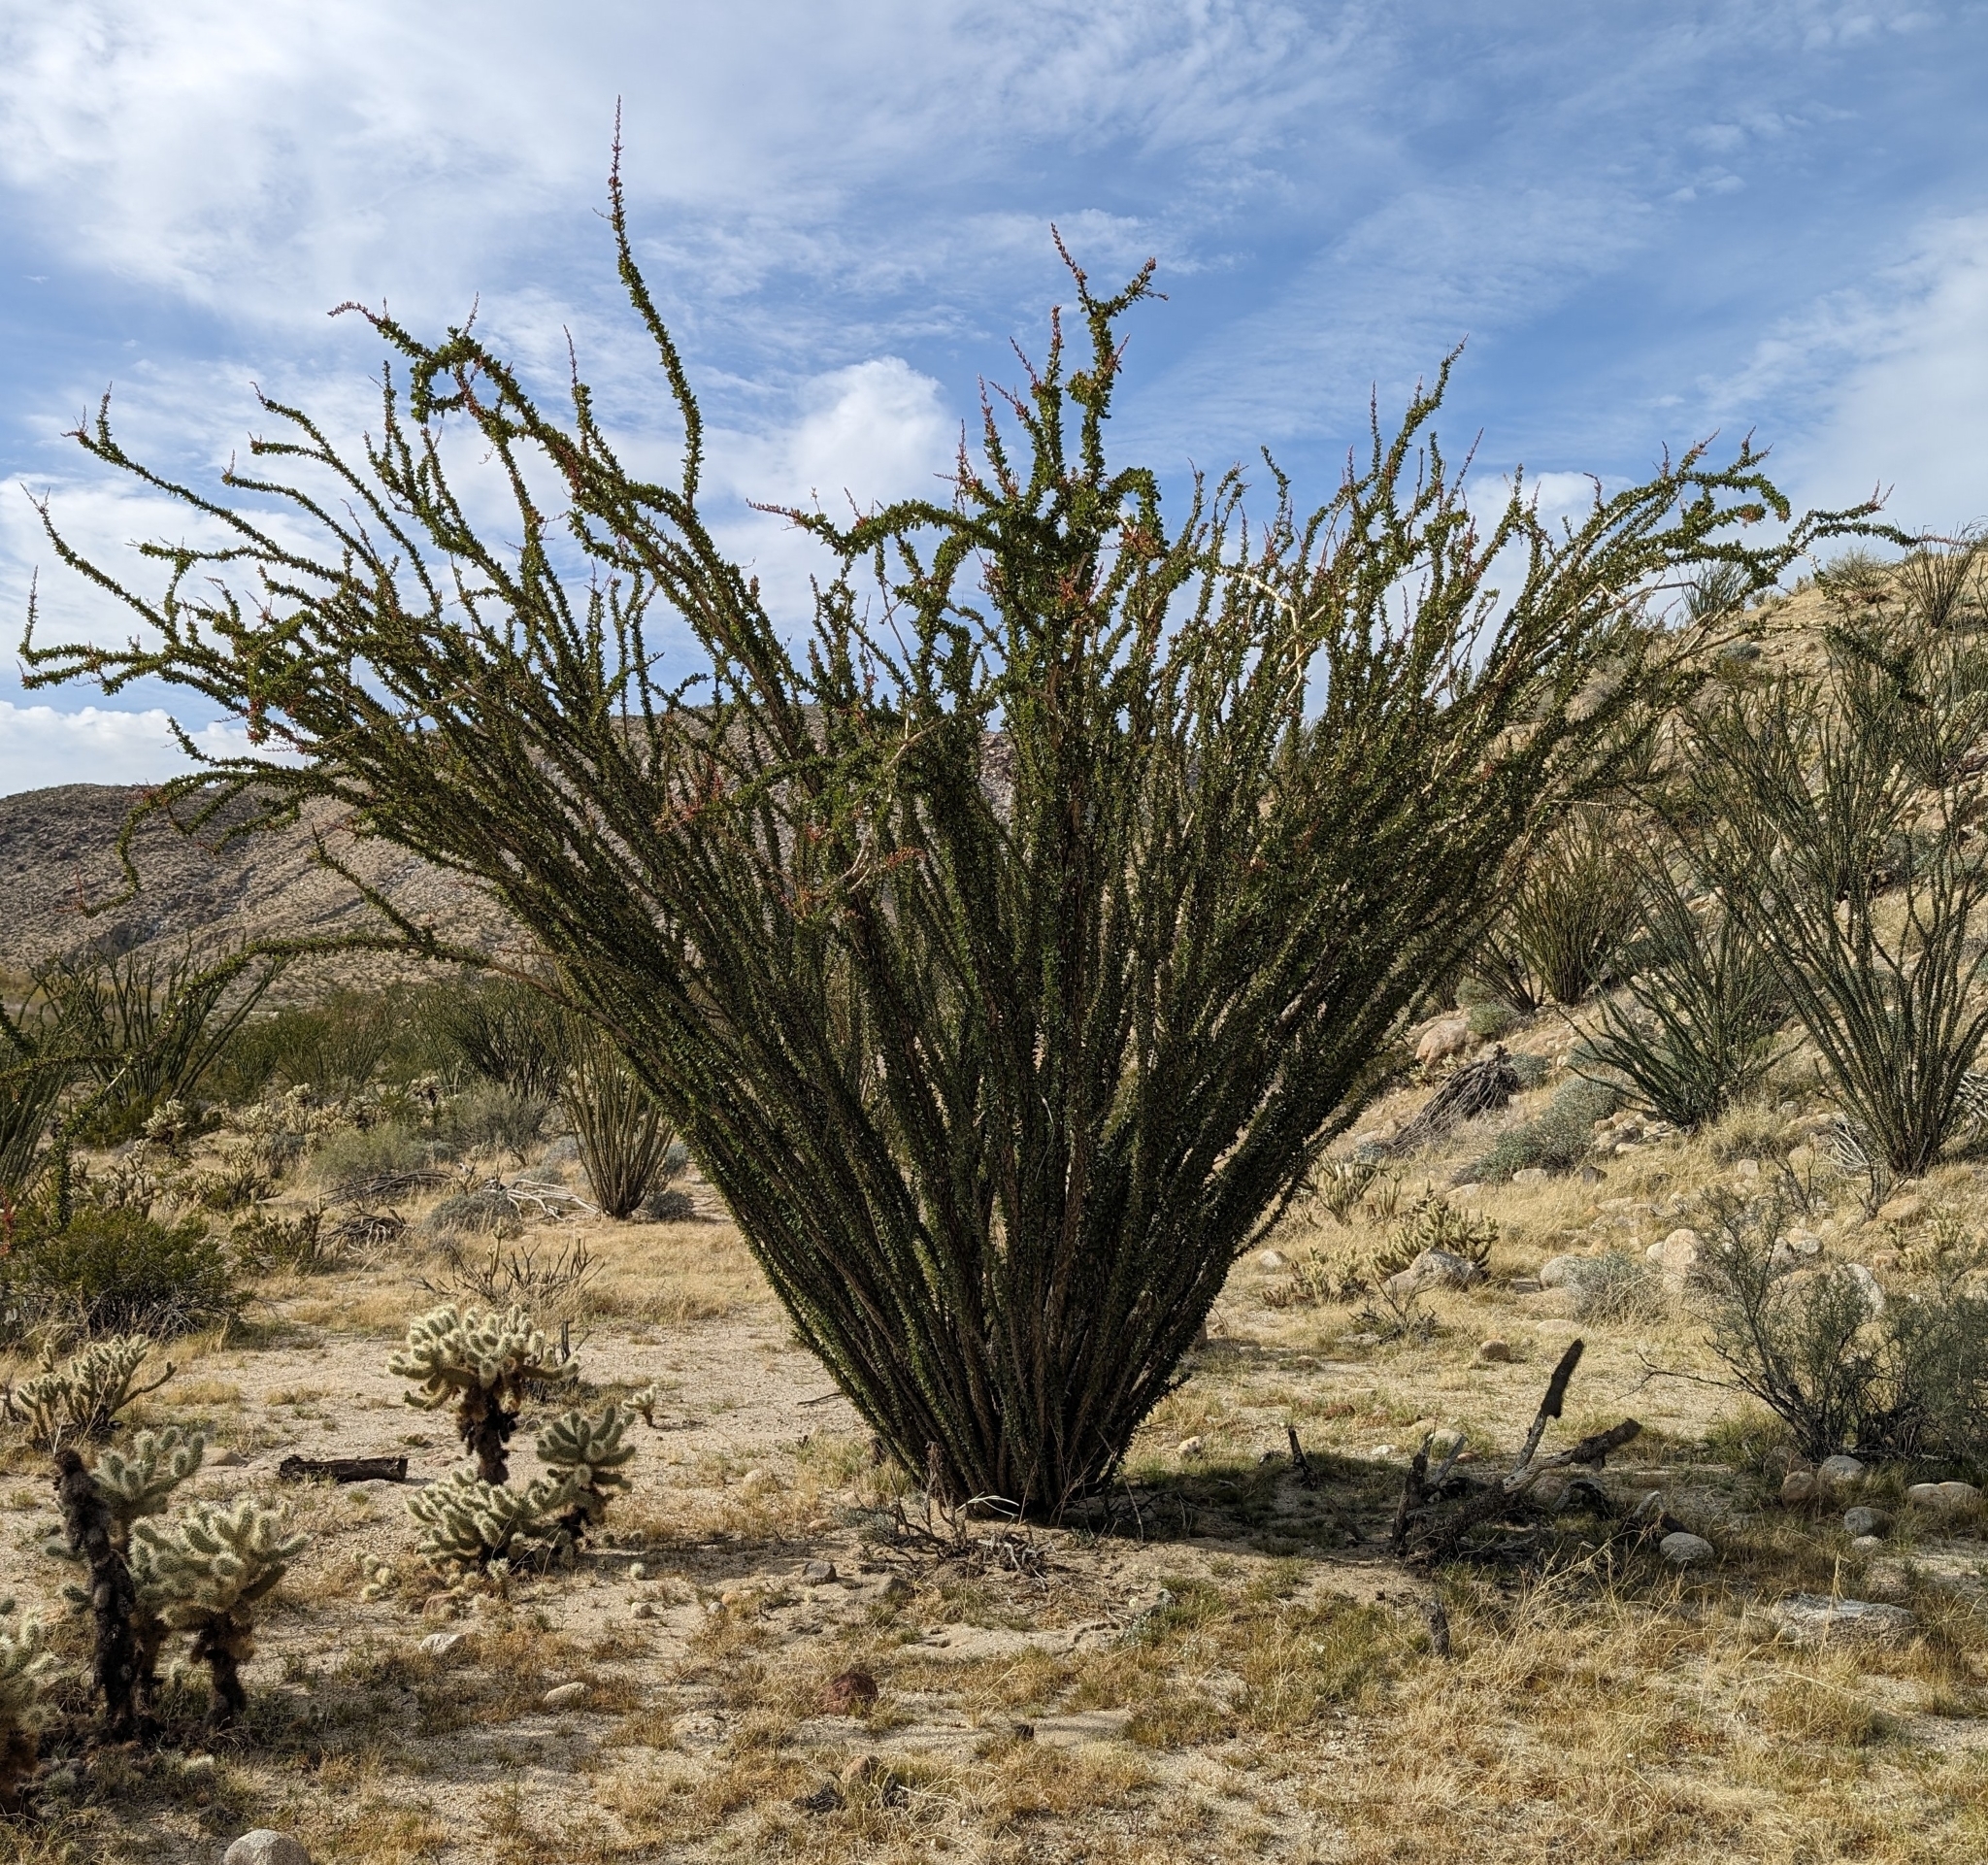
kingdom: Plantae
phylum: Tracheophyta
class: Magnoliopsida
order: Ericales
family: Fouquieriaceae
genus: Fouquieria
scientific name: Fouquieria splendens
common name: Vine-cactus
